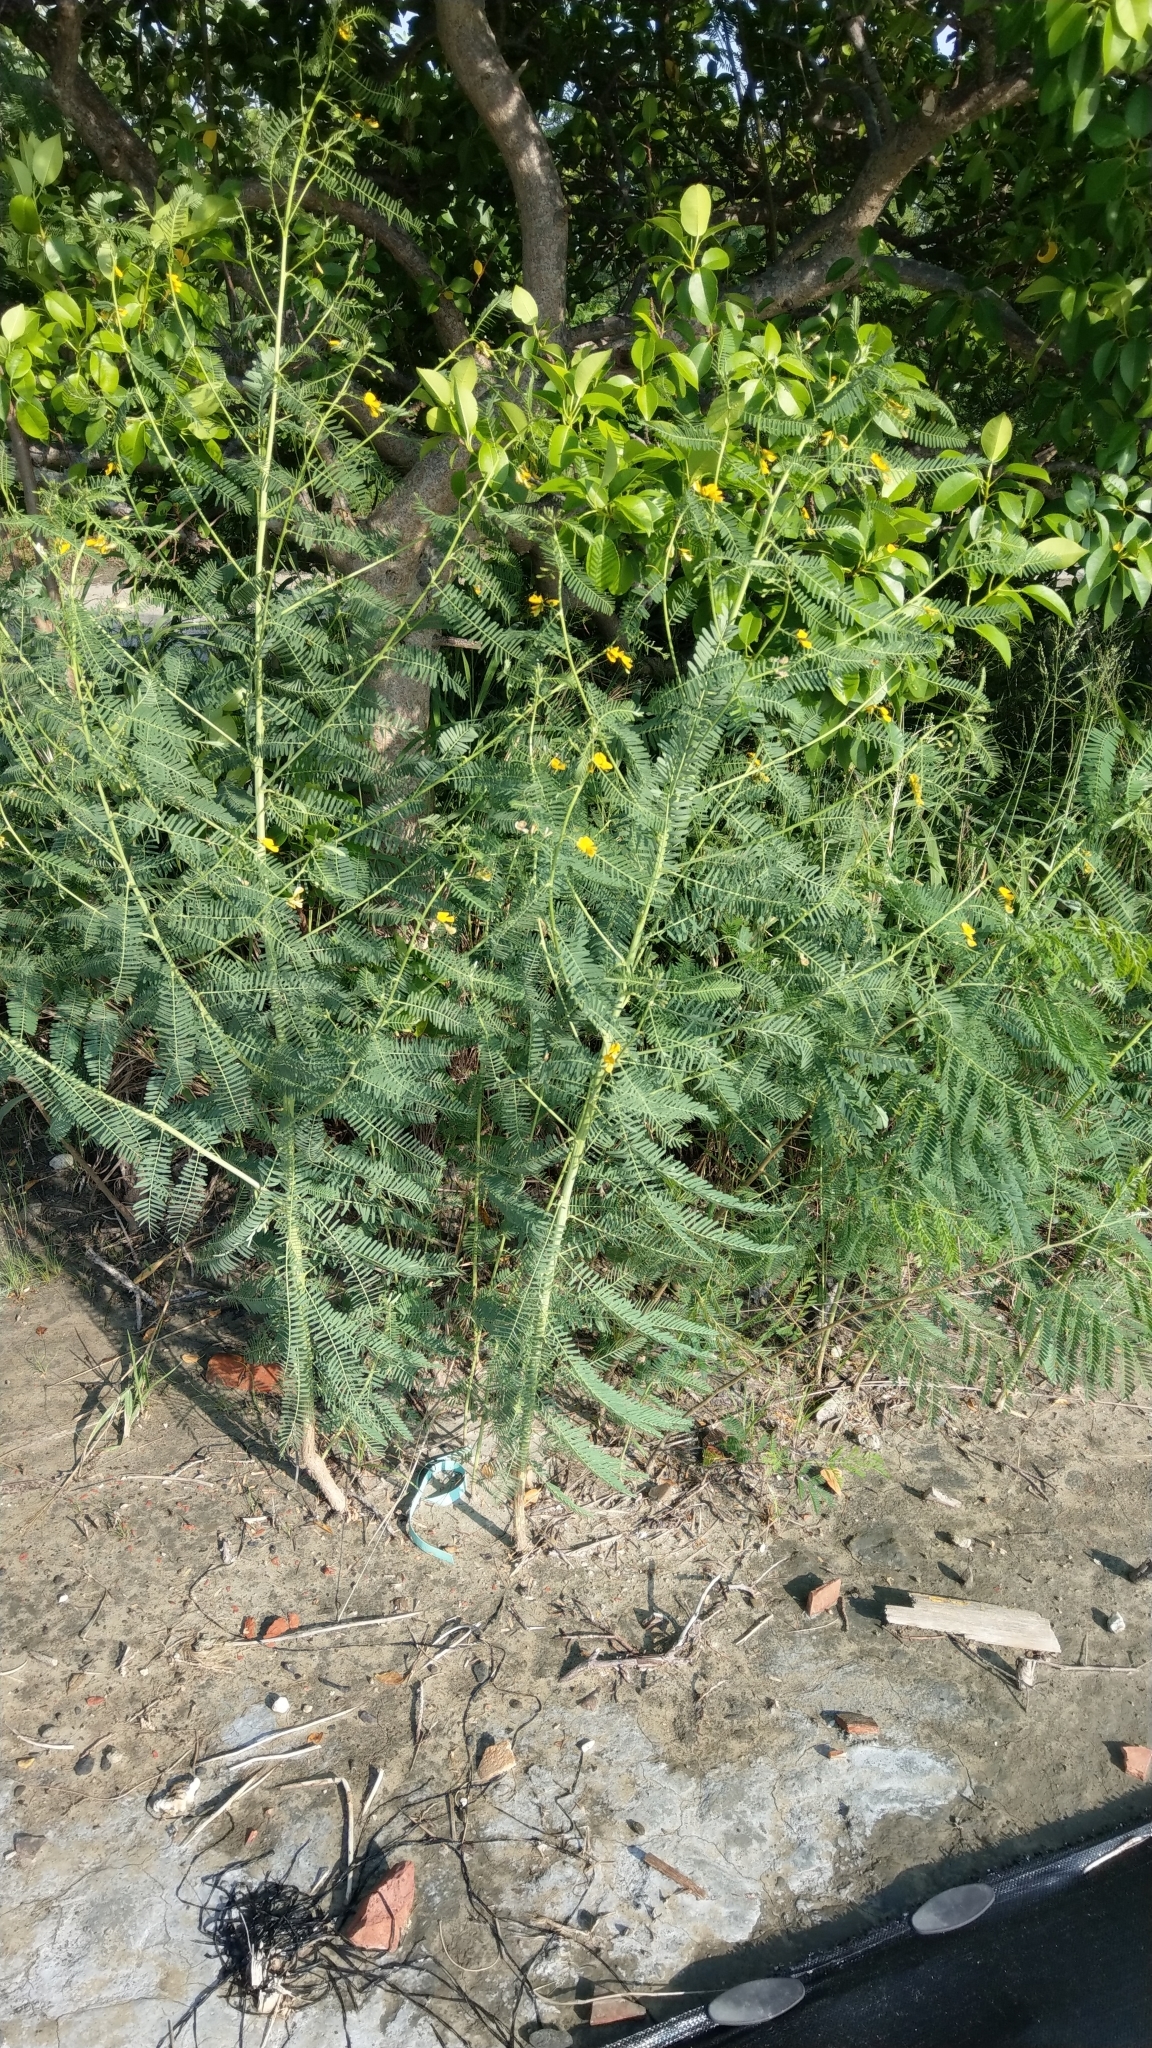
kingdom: Plantae
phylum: Tracheophyta
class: Magnoliopsida
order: Fabales
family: Fabaceae
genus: Sesbania
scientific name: Sesbania cannabina
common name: Canicha
